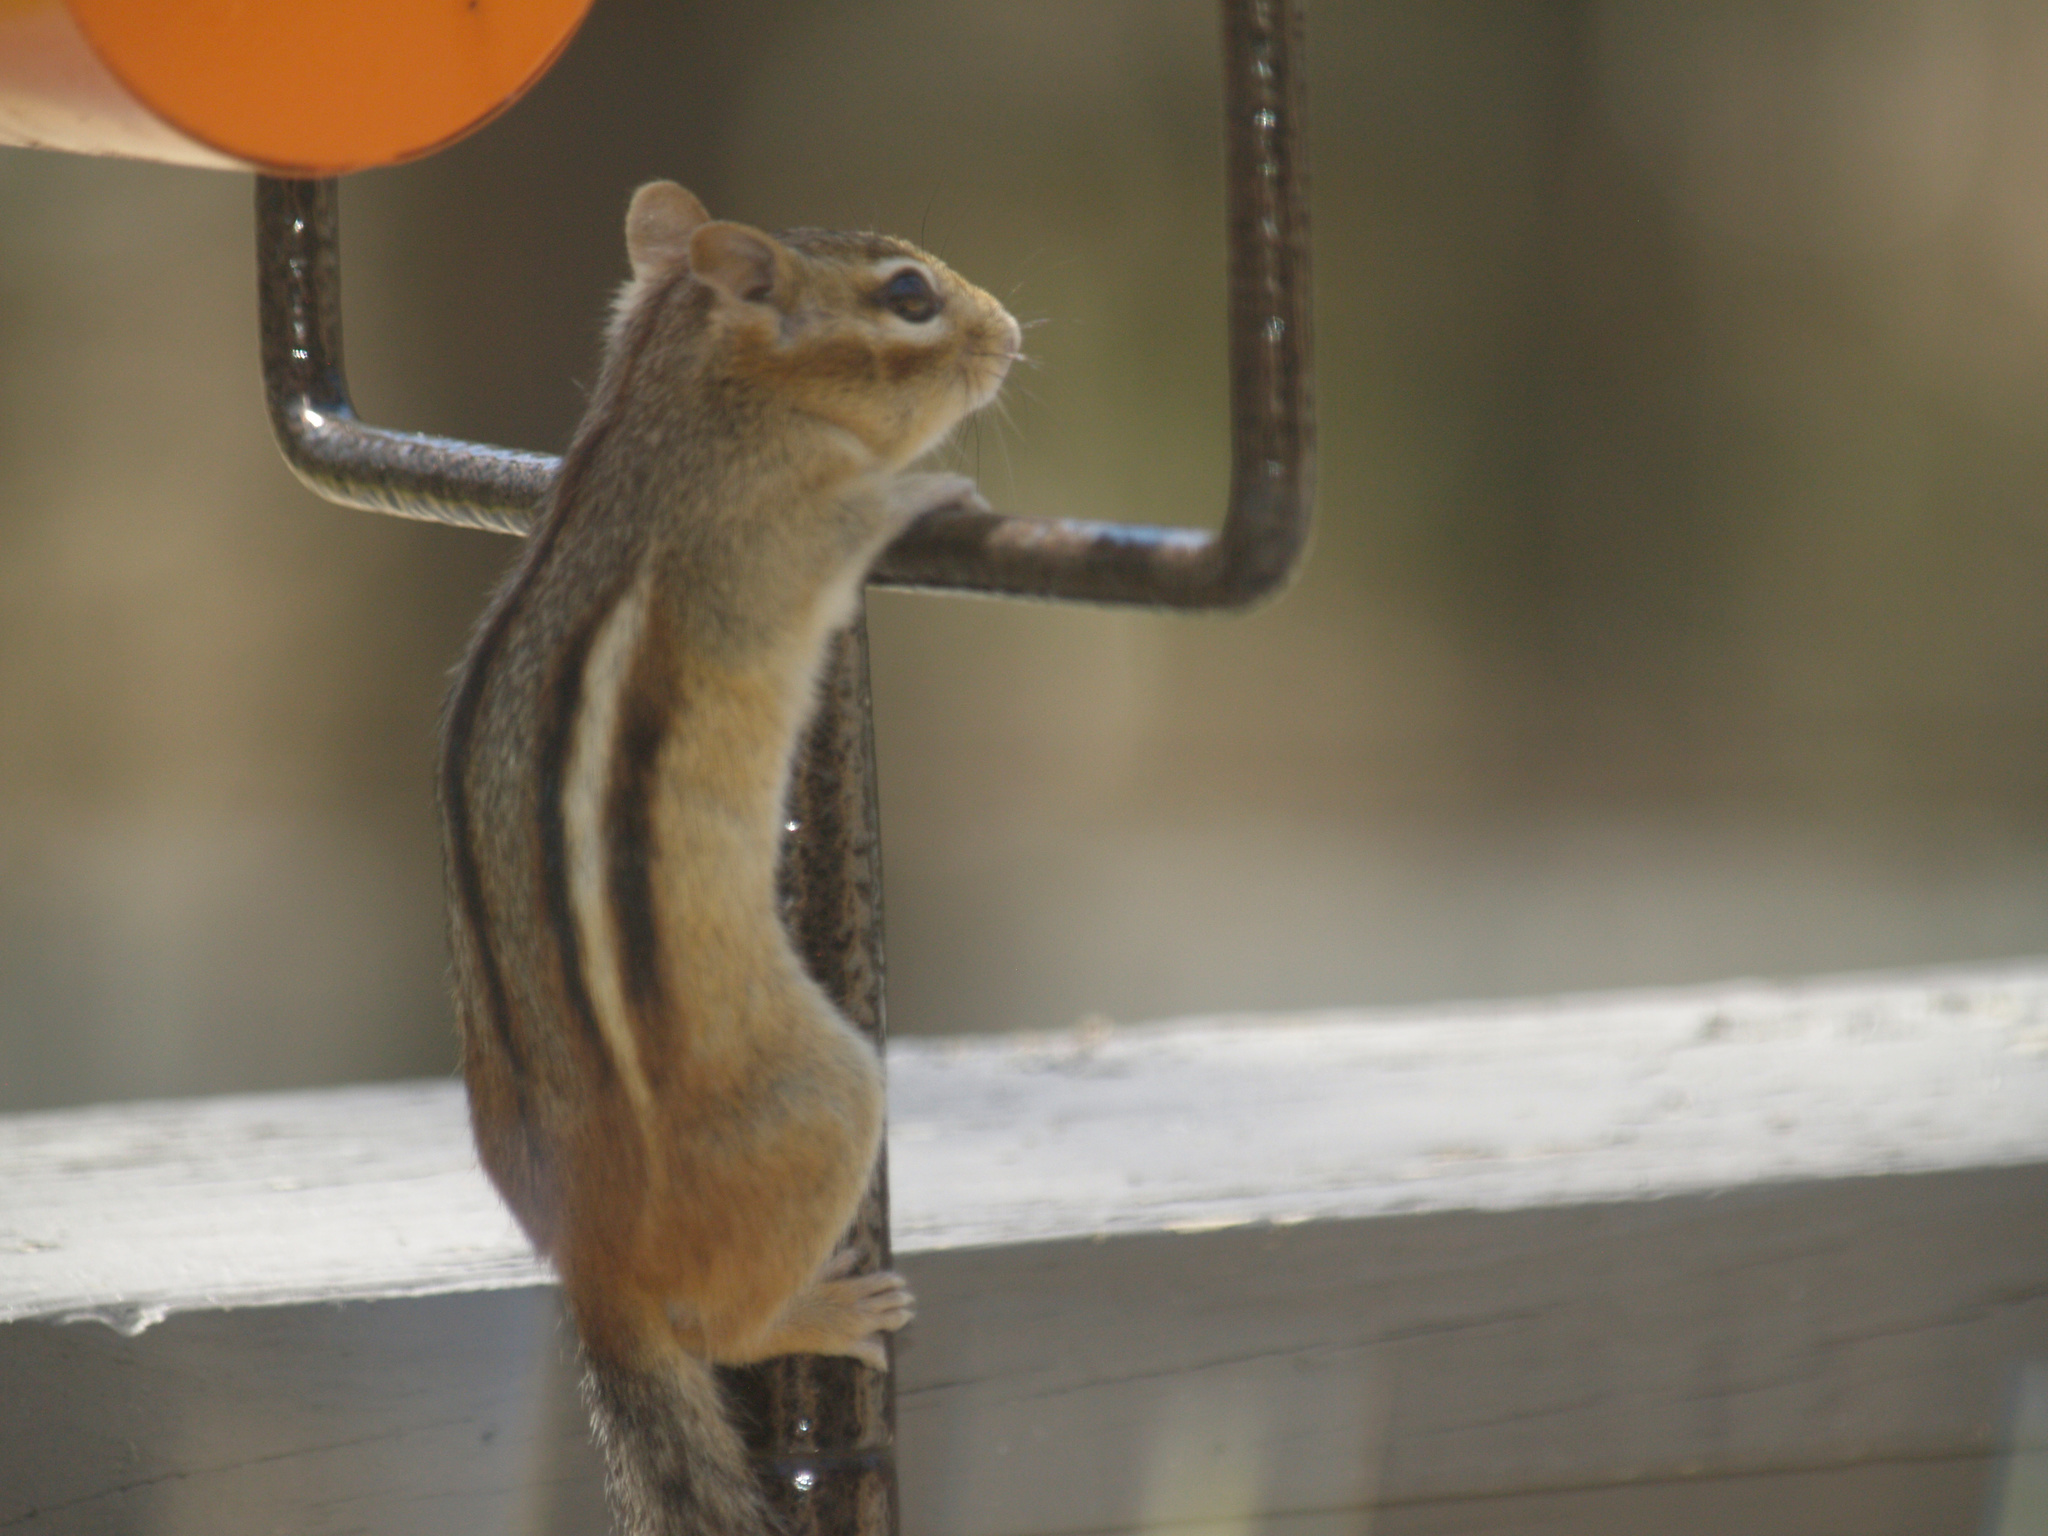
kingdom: Animalia
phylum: Chordata
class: Mammalia
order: Rodentia
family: Sciuridae
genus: Tamias
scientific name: Tamias striatus
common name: Eastern chipmunk
